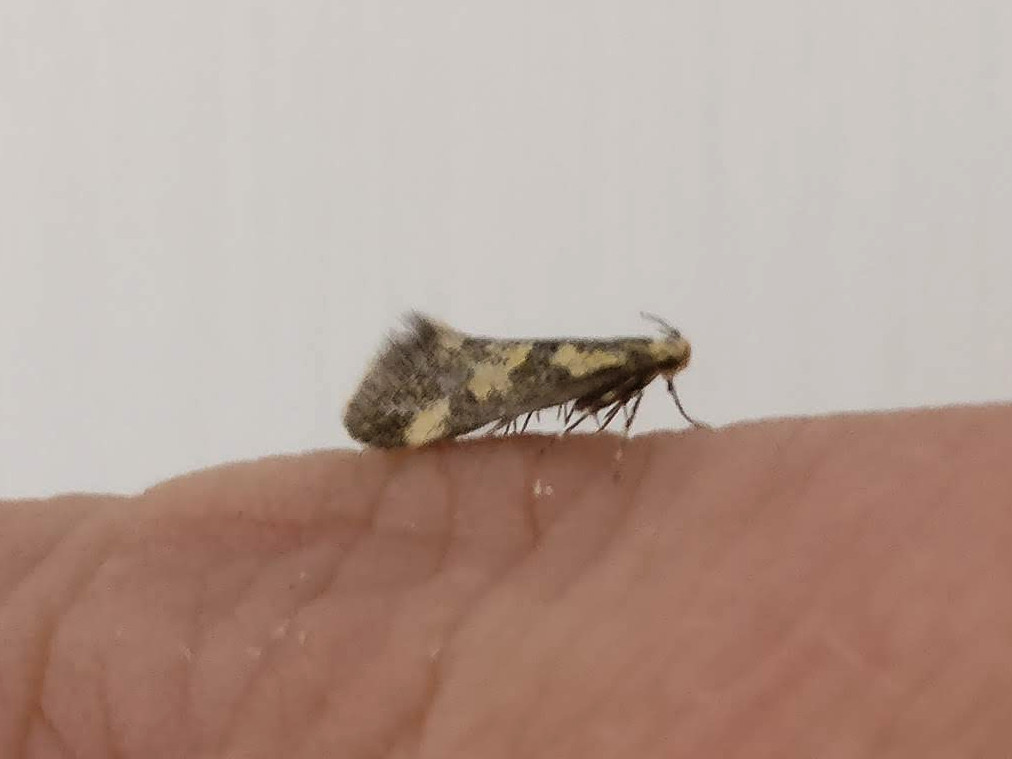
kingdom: Animalia
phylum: Arthropoda
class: Insecta
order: Lepidoptera
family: Oecophoridae
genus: Denisia
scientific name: Denisia similella
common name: Northern tubic
